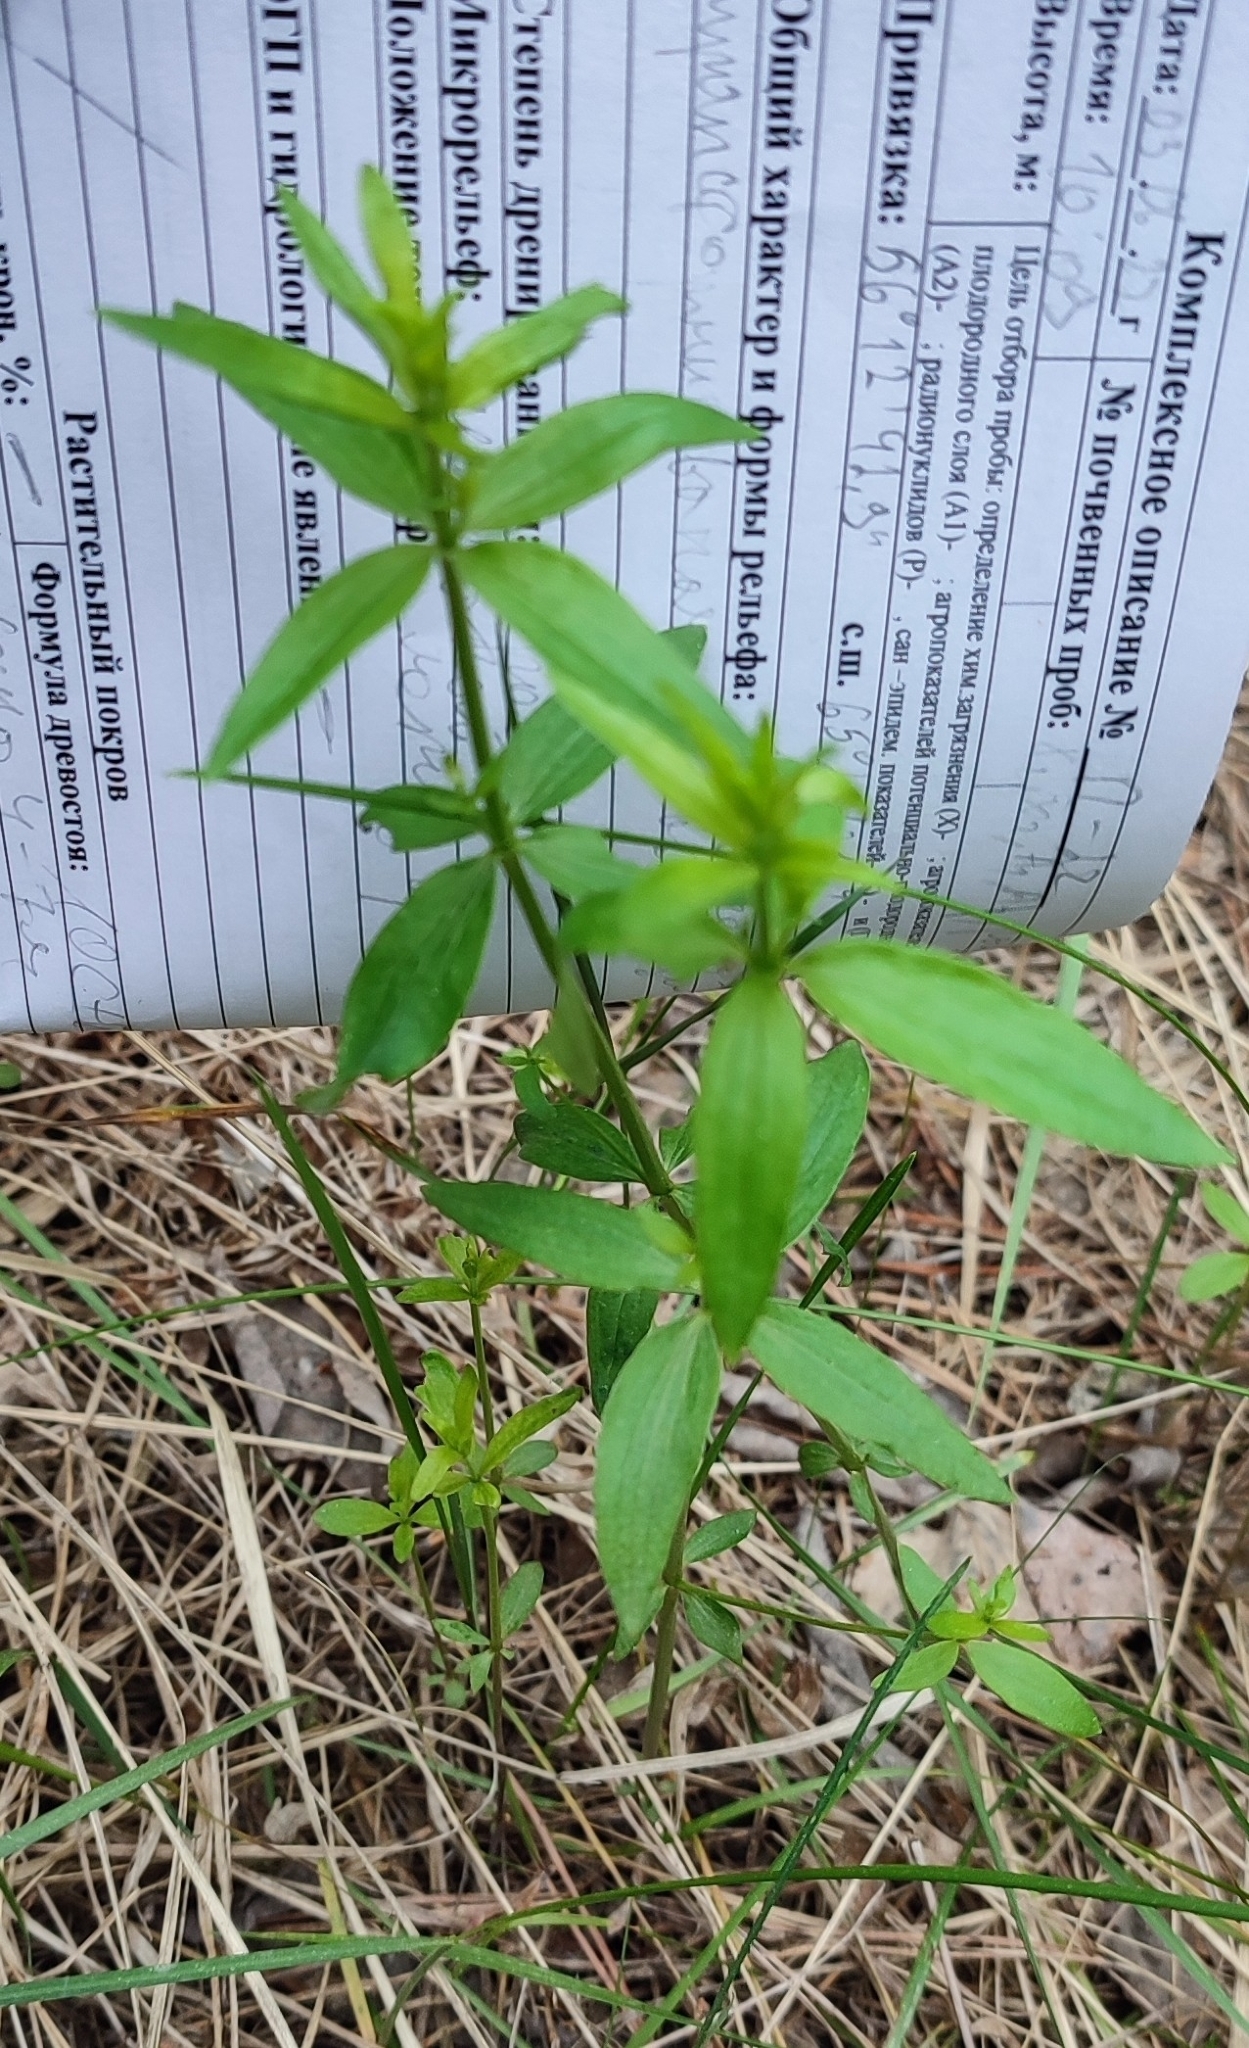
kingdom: Plantae
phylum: Tracheophyta
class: Magnoliopsida
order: Gentianales
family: Rubiaceae
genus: Galium
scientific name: Galium boreale
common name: Northern bedstraw
